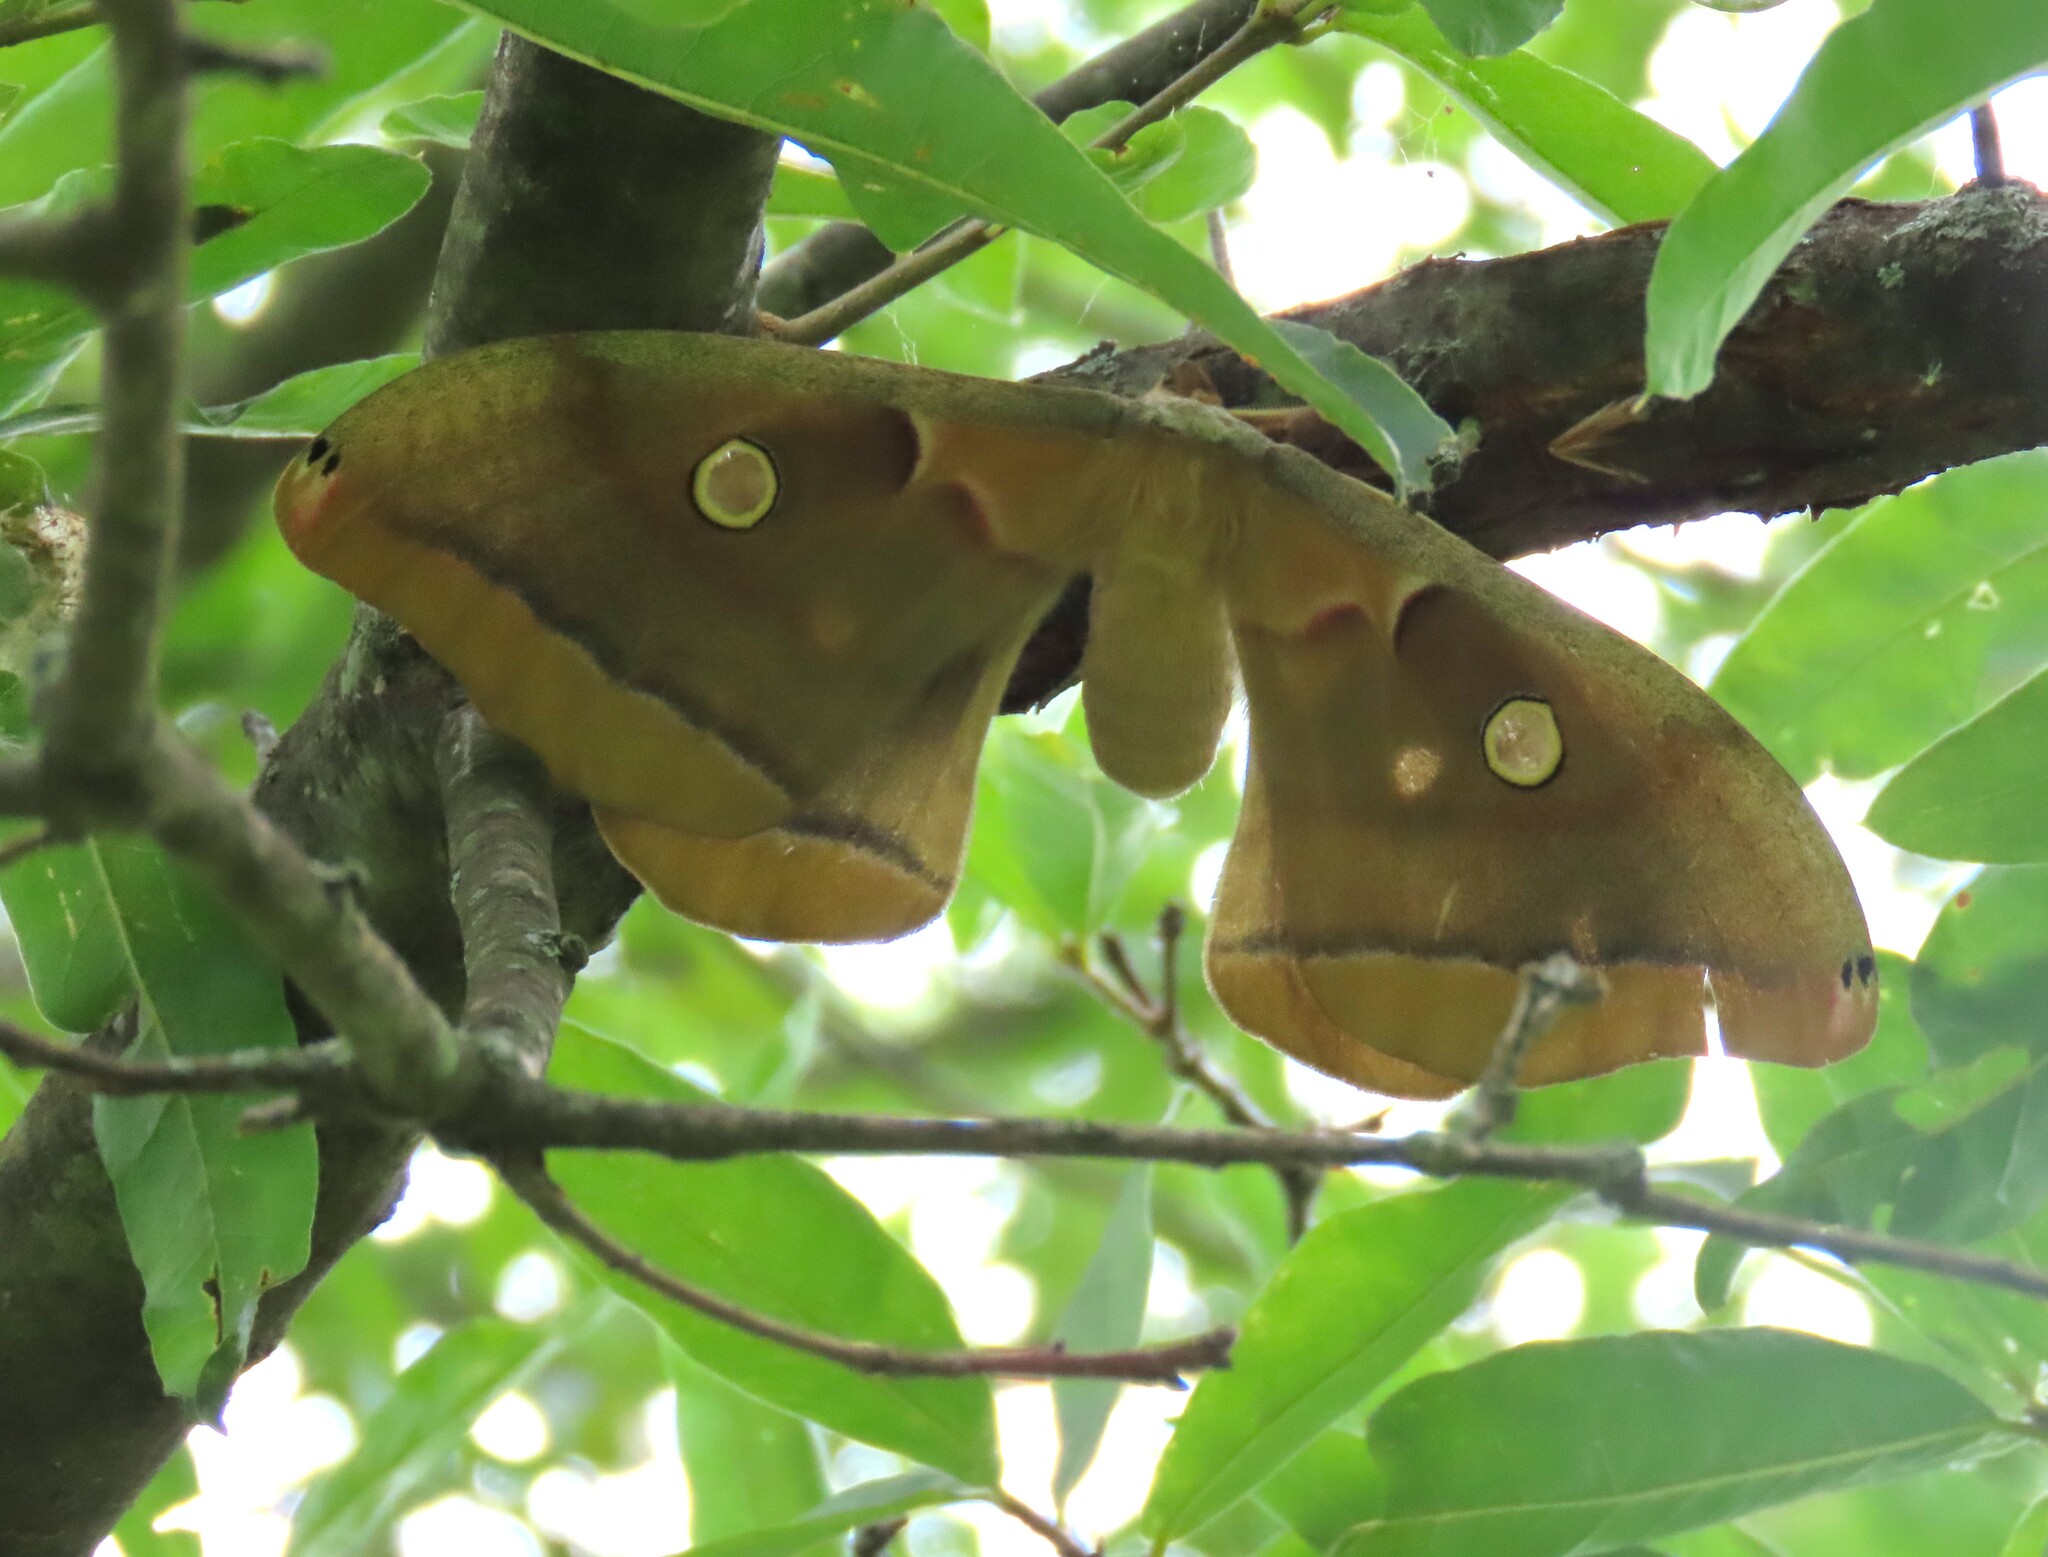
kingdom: Animalia
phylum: Arthropoda
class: Insecta
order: Lepidoptera
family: Saturniidae
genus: Antheraea
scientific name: Antheraea polyphemus
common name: Polyphemus moth
